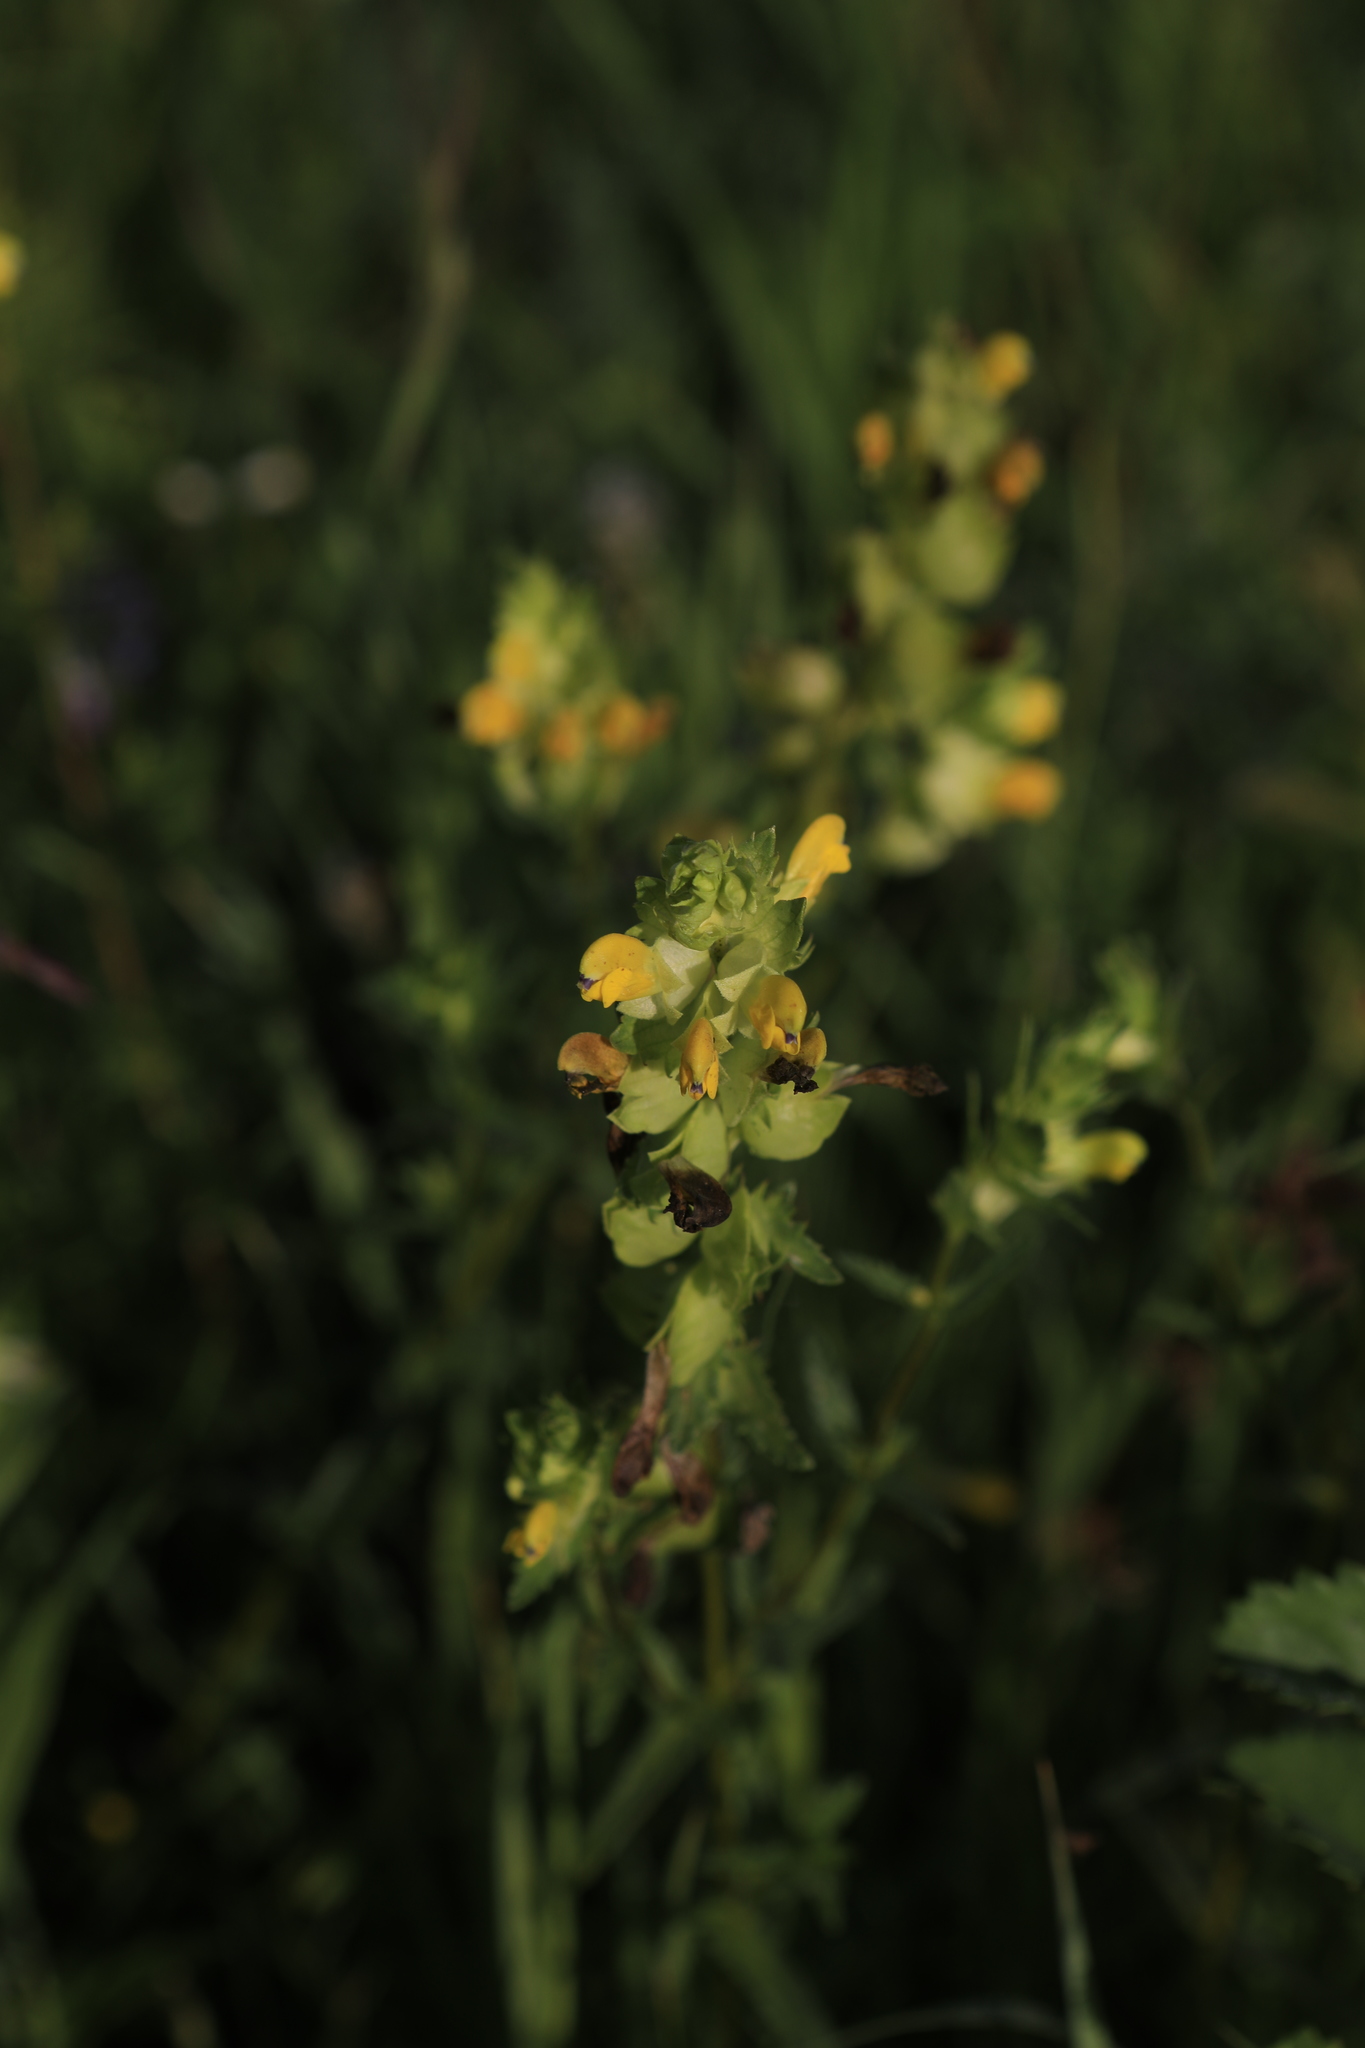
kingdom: Plantae
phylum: Tracheophyta
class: Magnoliopsida
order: Lamiales
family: Orobanchaceae
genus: Rhinanthus
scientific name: Rhinanthus minor
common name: Yellow-rattle
